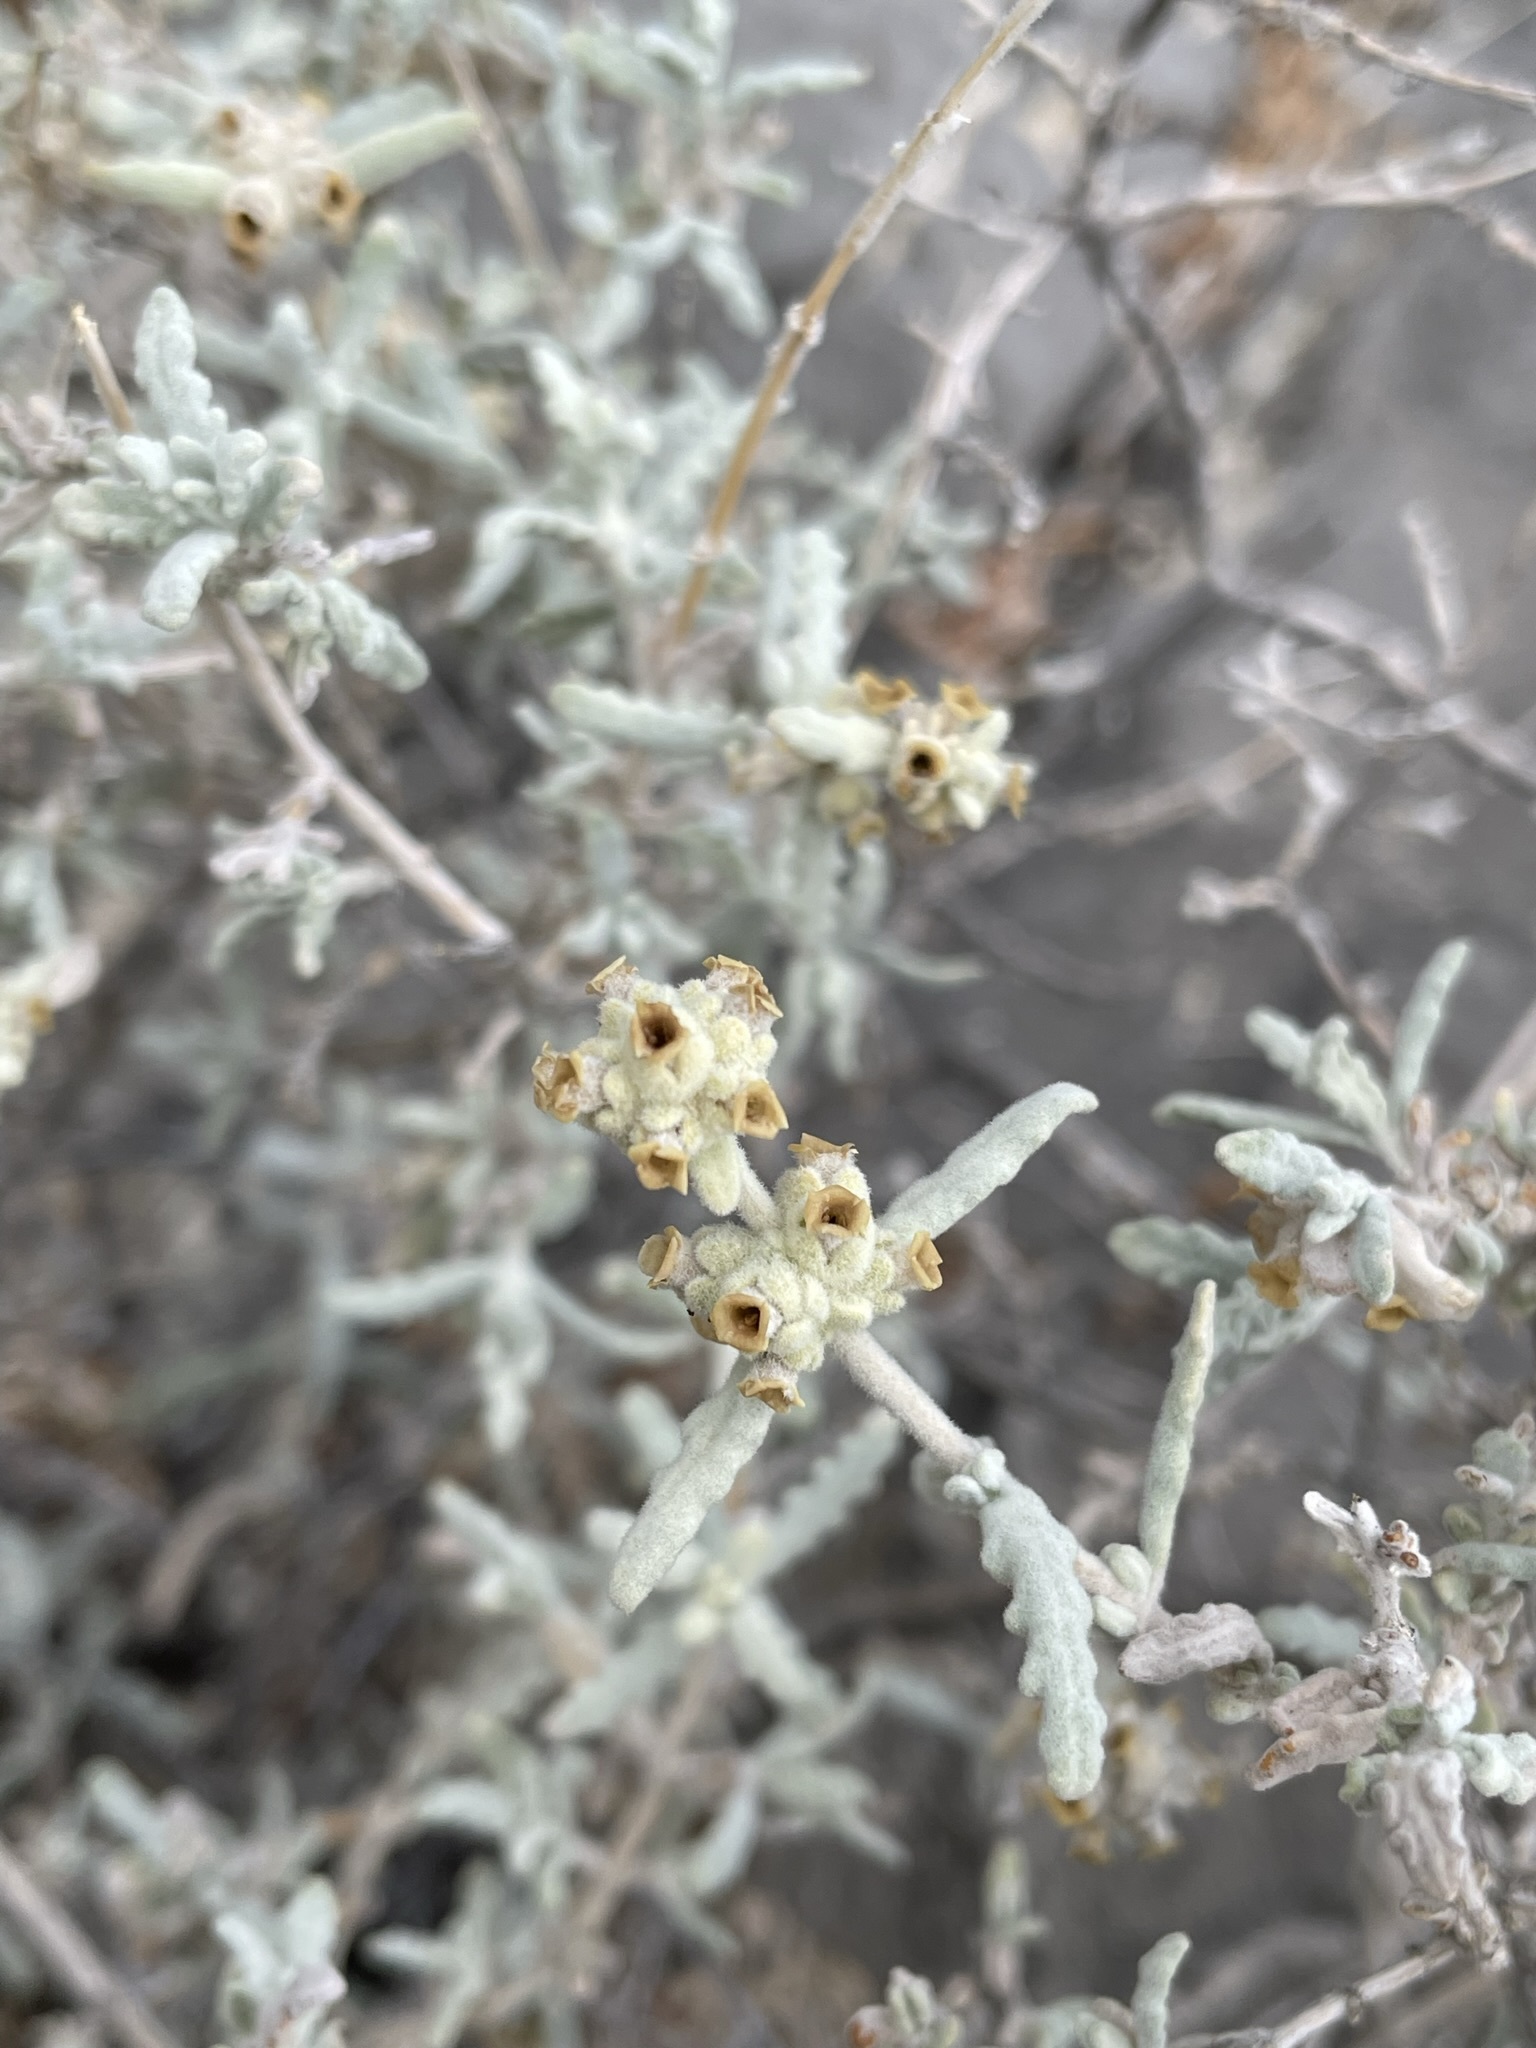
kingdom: Plantae
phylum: Tracheophyta
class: Magnoliopsida
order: Lamiales
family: Scrophulariaceae
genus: Buddleja
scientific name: Buddleja utahensis
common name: Utah butterfly-bush
